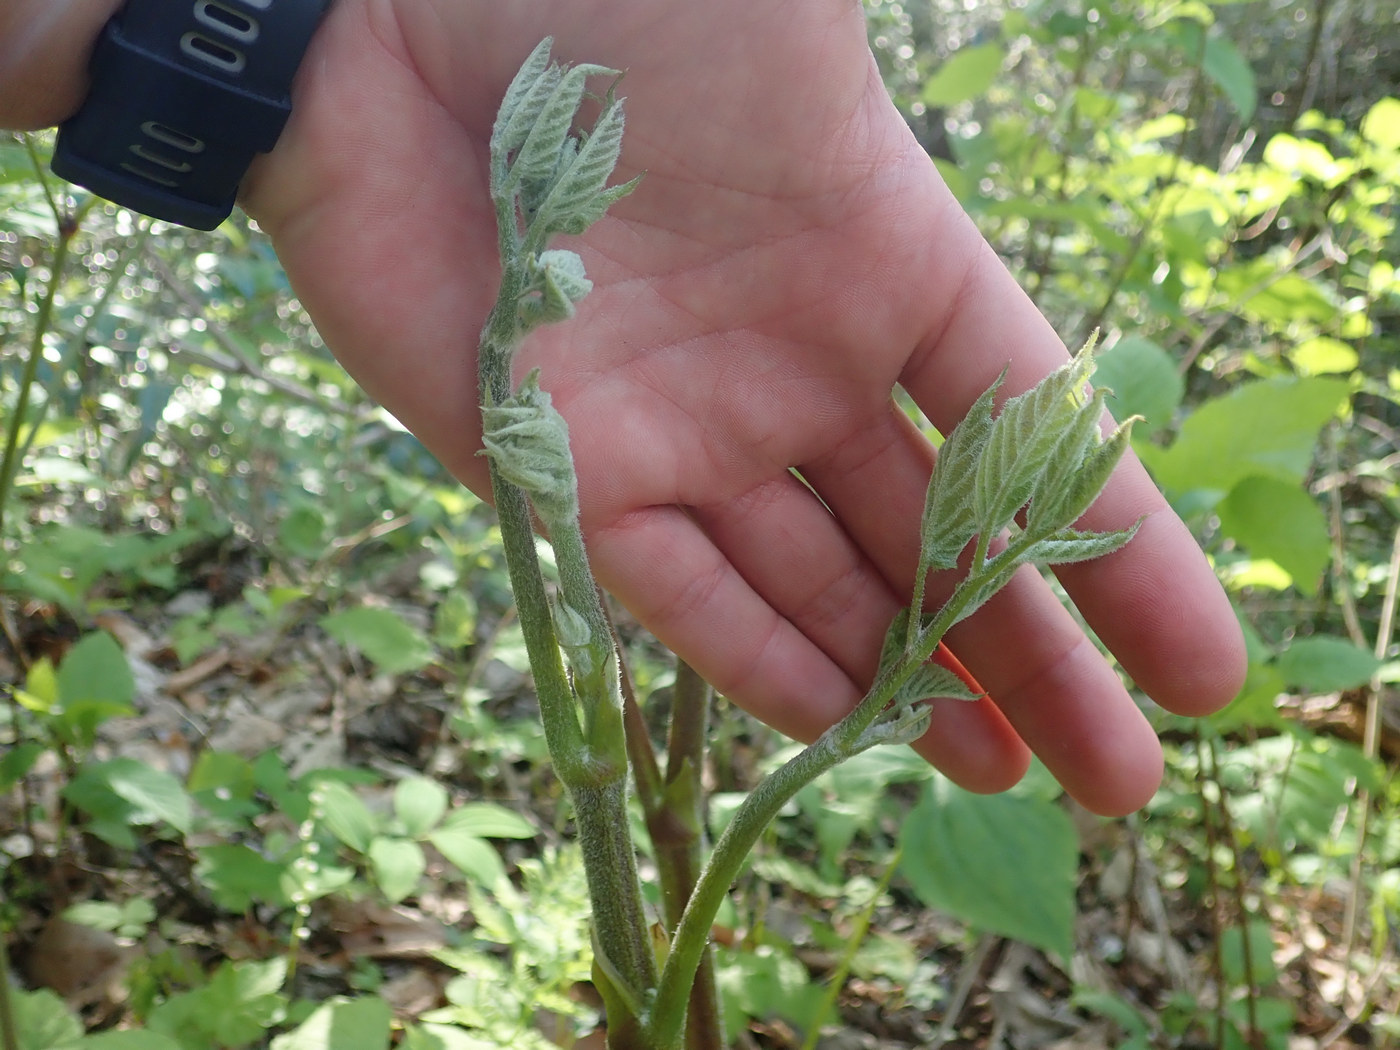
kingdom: Plantae
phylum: Tracheophyta
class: Magnoliopsida
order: Apiales
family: Araliaceae
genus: Aralia
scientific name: Aralia racemosa
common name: American-spikenard
